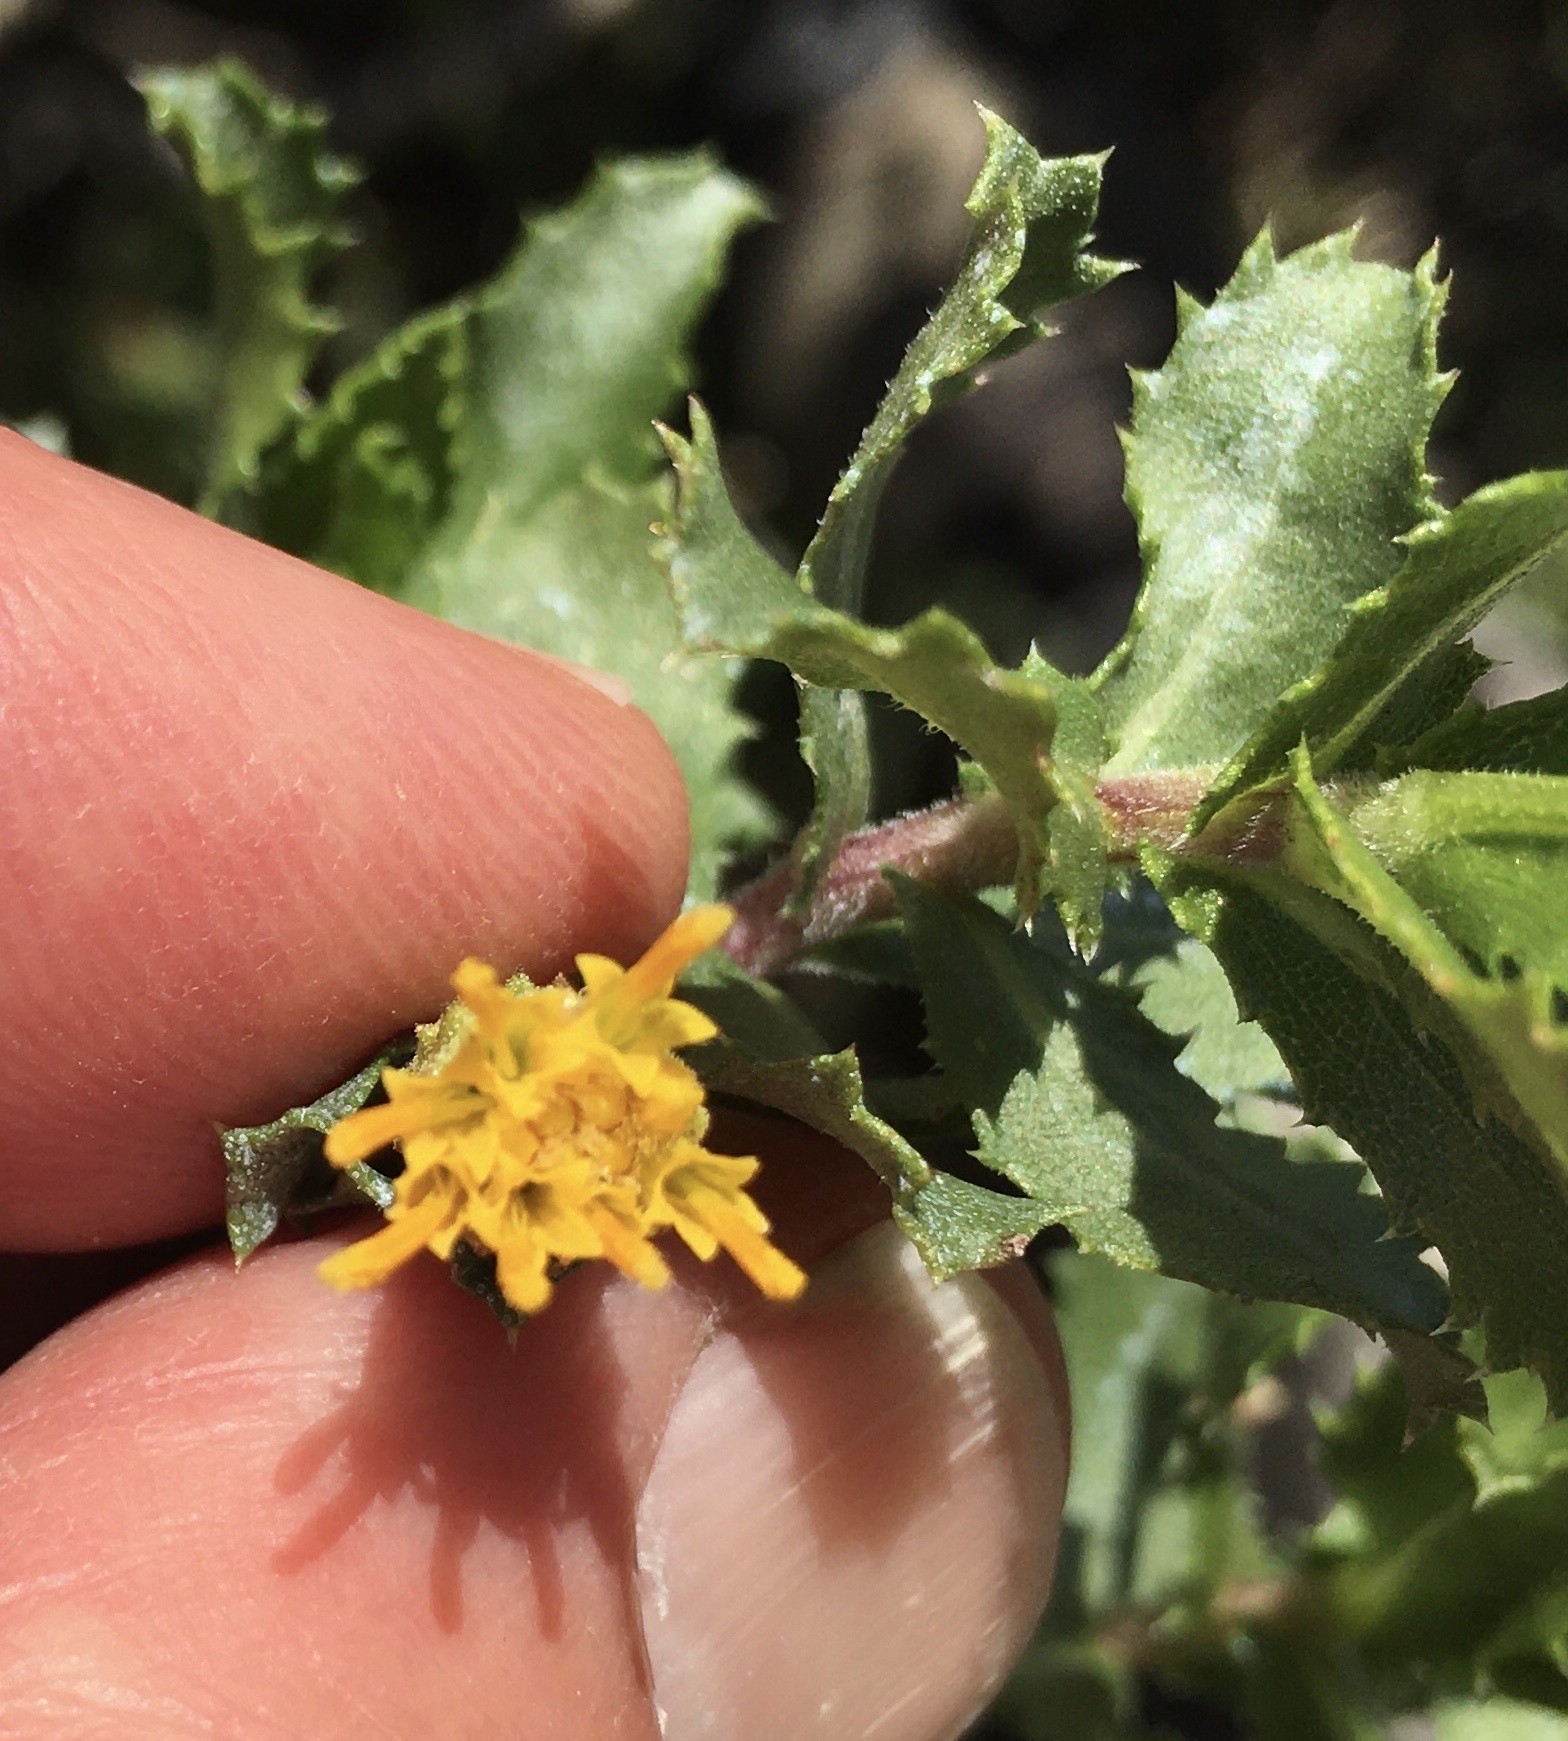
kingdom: Plantae
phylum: Tracheophyta
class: Magnoliopsida
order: Asterales
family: Asteraceae
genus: Hazardia
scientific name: Hazardia squarrosa
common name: Saw-tooth goldenbush
